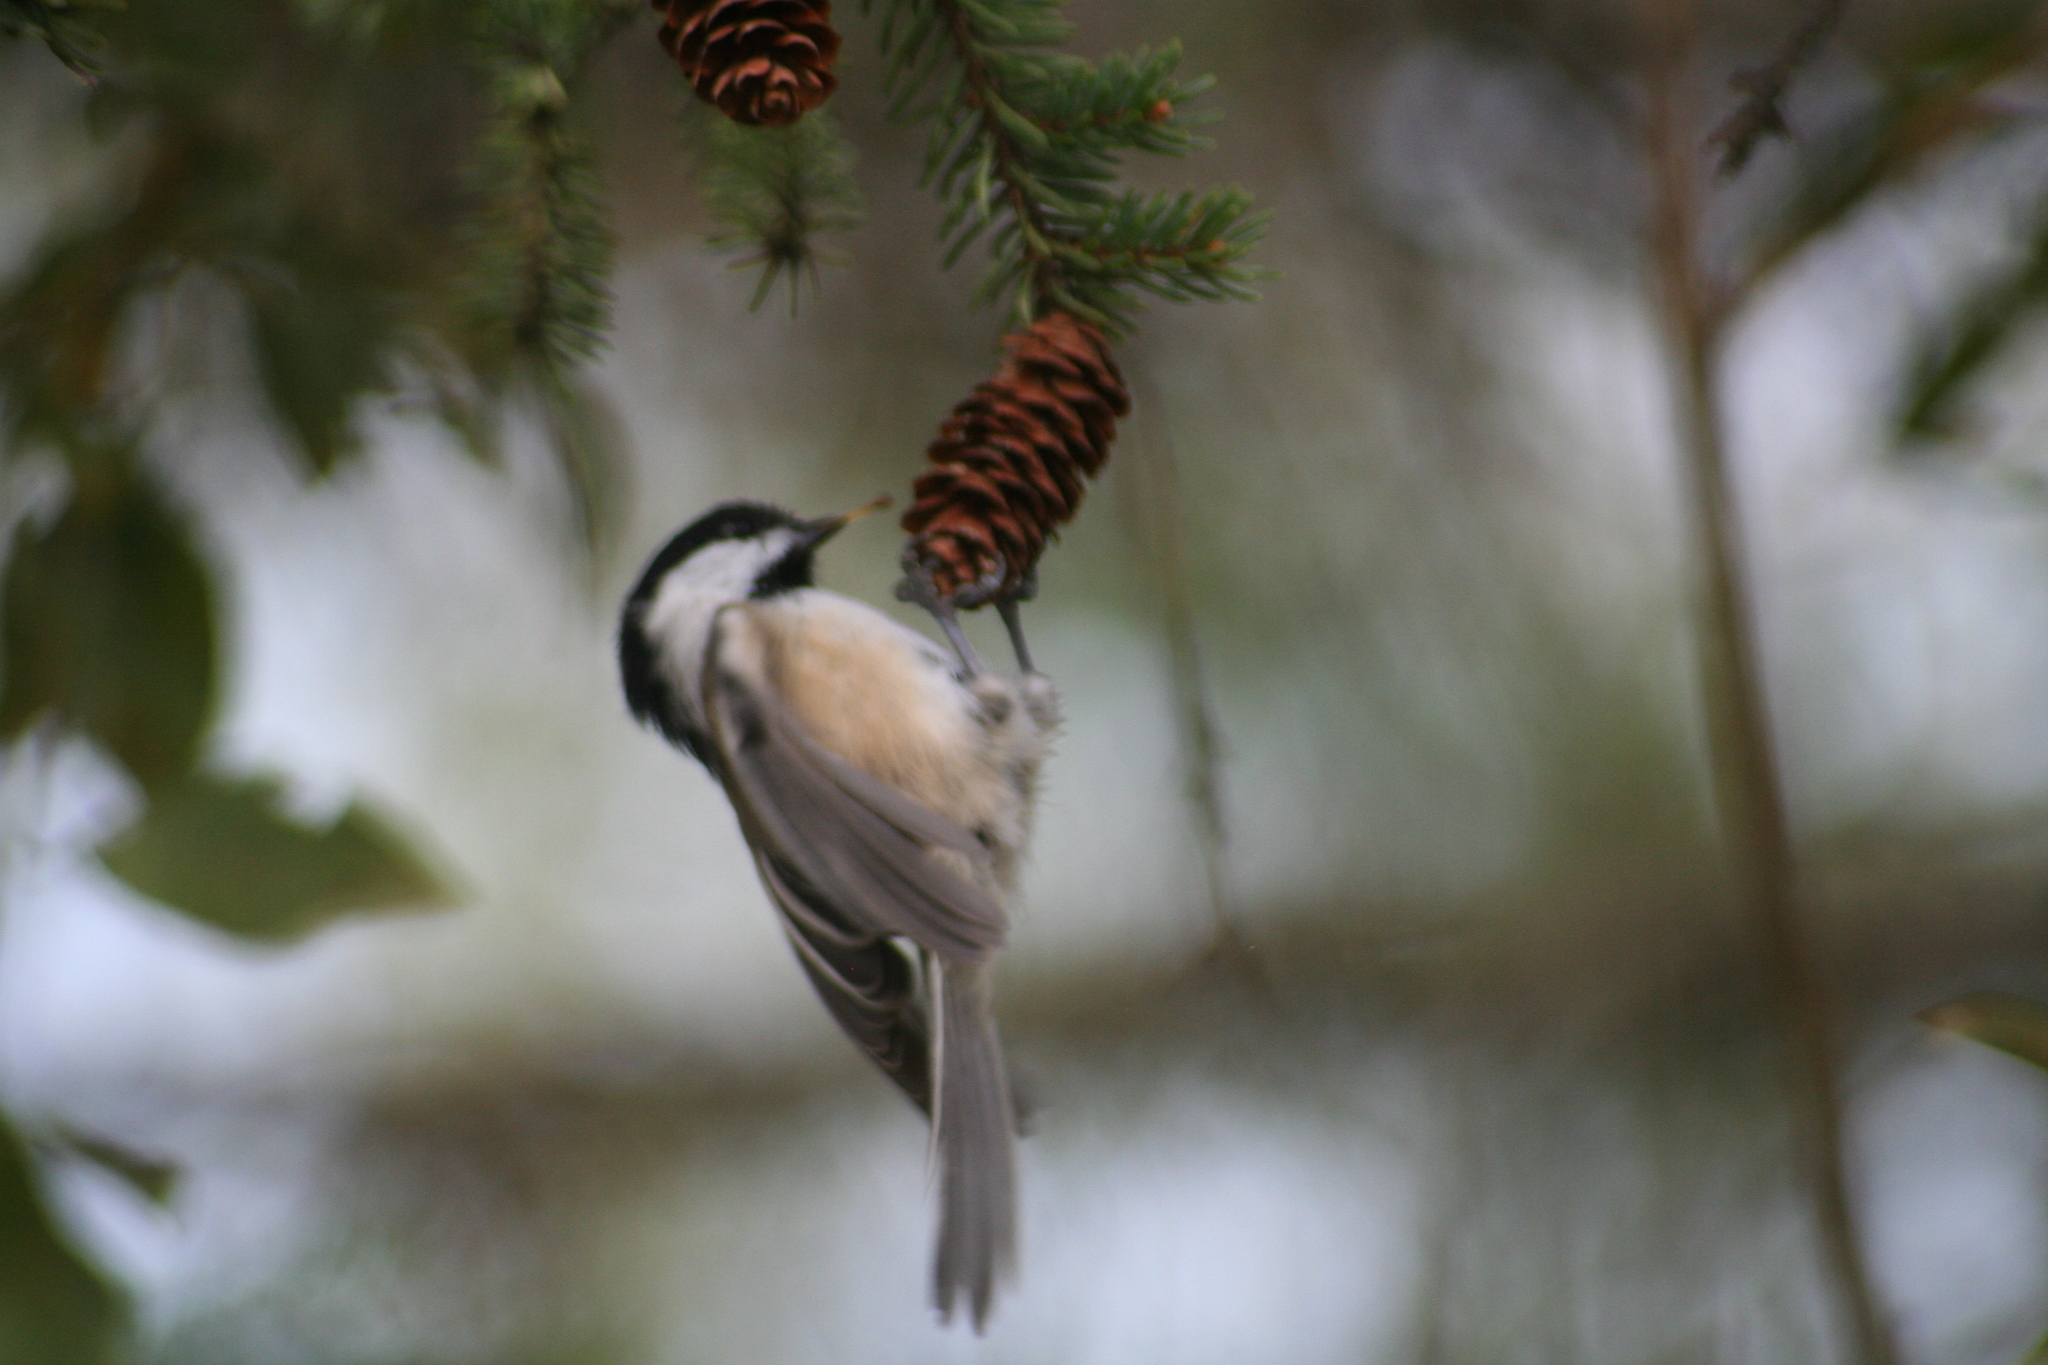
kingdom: Animalia
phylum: Chordata
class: Aves
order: Passeriformes
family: Paridae
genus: Poecile
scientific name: Poecile atricapillus
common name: Black-capped chickadee
